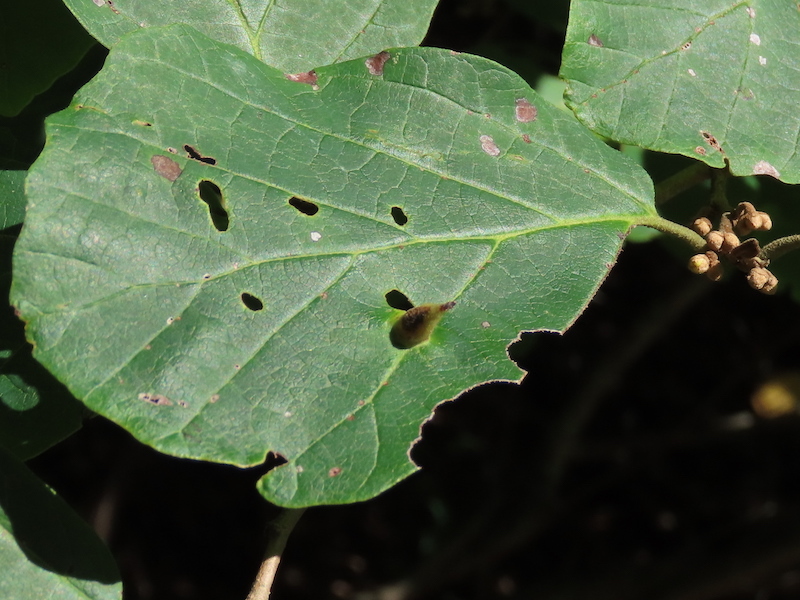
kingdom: Animalia
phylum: Arthropoda
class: Insecta
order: Hemiptera
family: Aphididae
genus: Hormaphis
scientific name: Hormaphis hamamelidis
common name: Witch-hazel cone gall aphid
